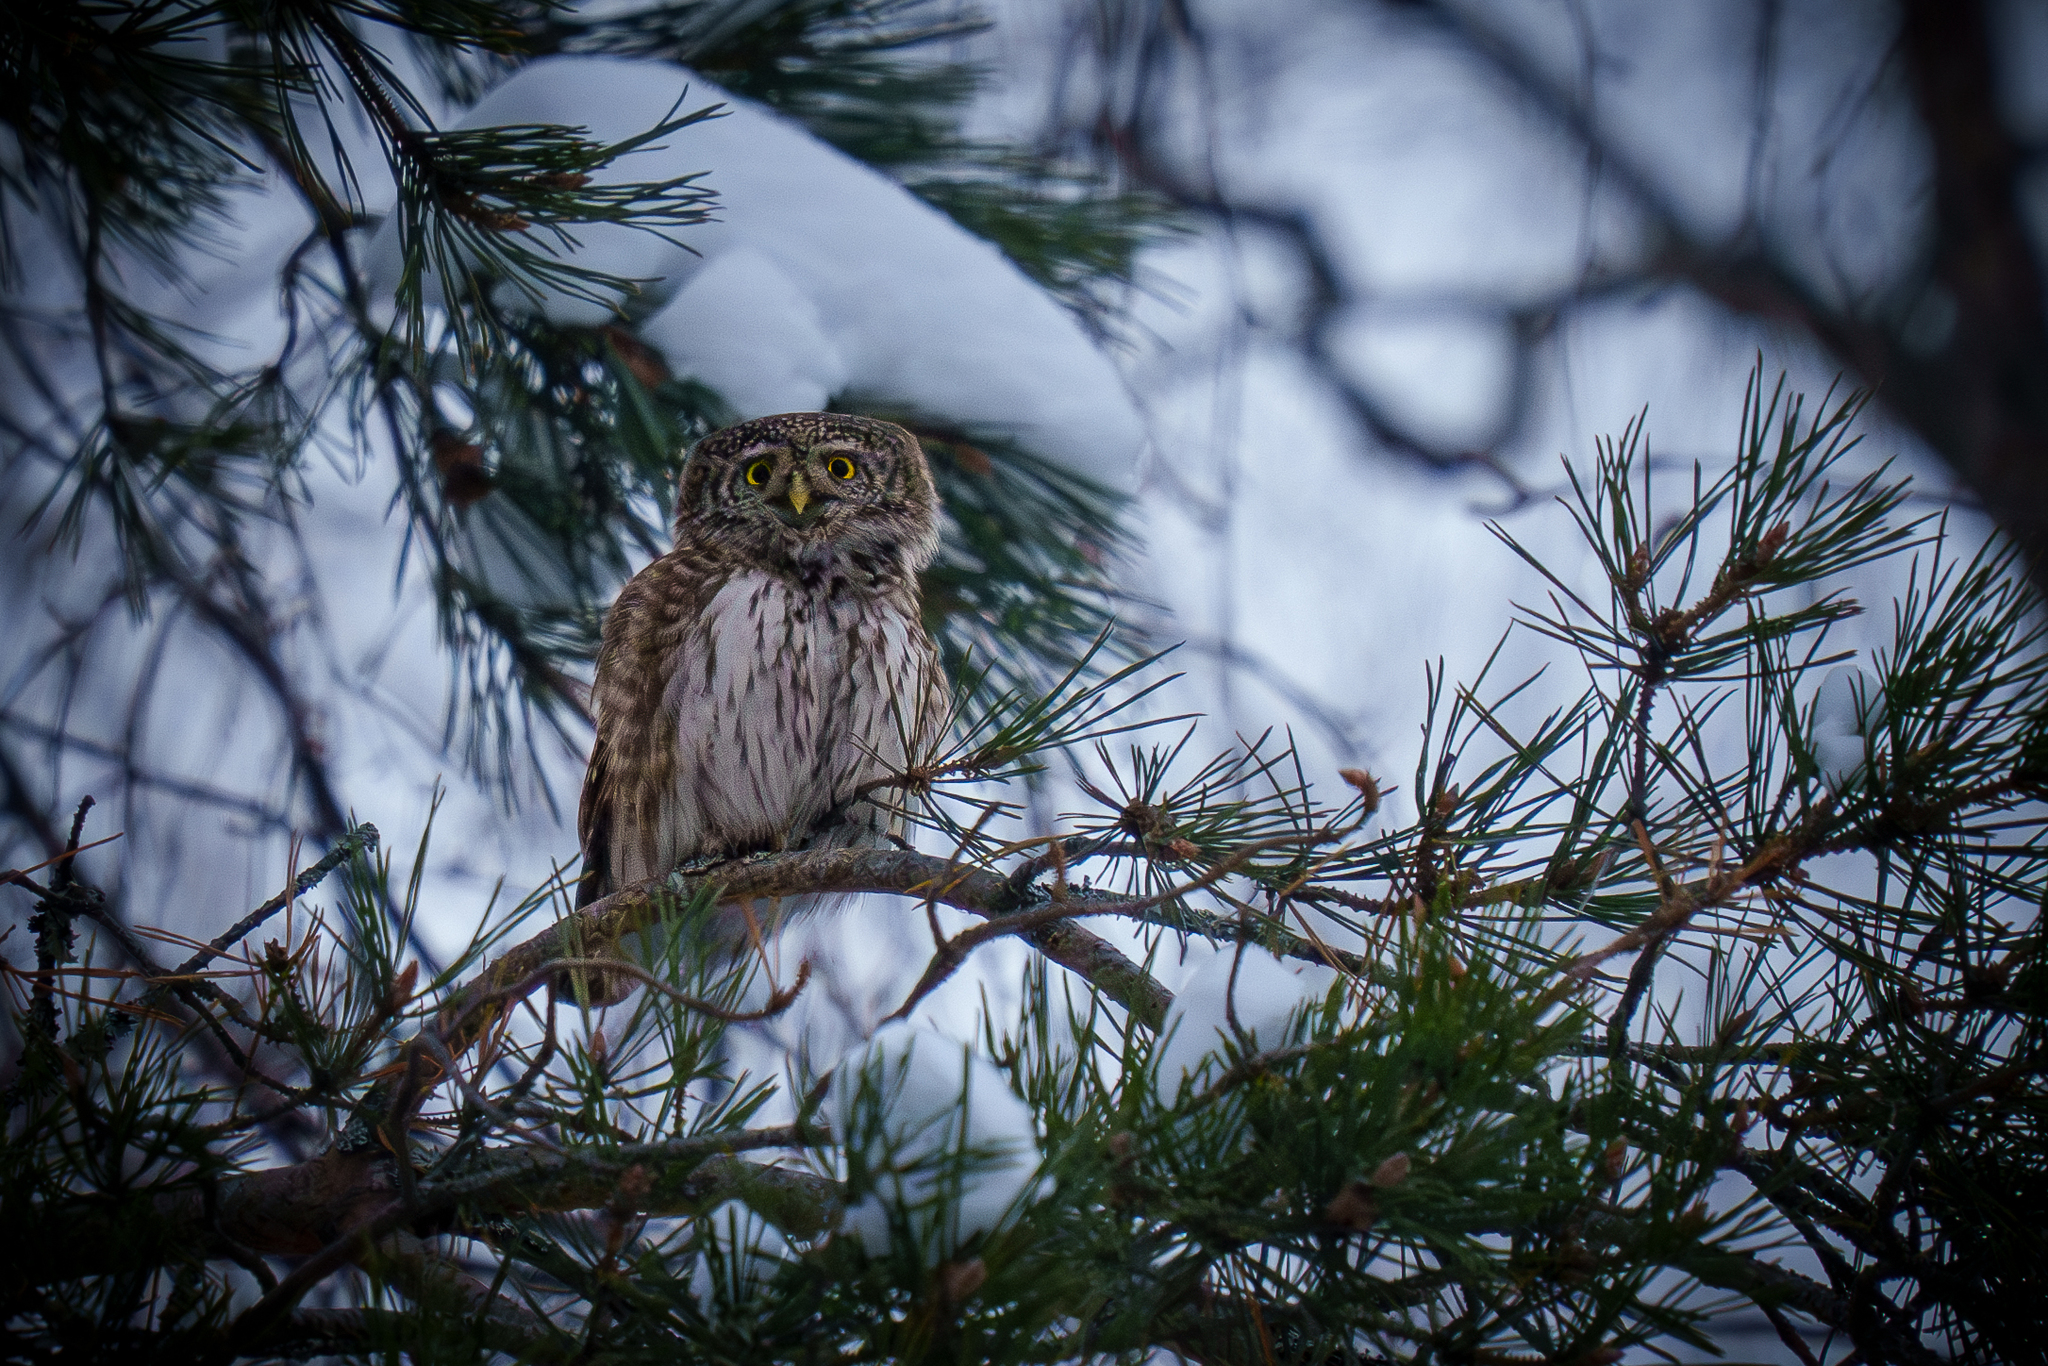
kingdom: Animalia
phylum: Chordata
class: Aves
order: Strigiformes
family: Strigidae
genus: Glaucidium
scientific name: Glaucidium passerinum
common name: Eurasian pygmy owl
